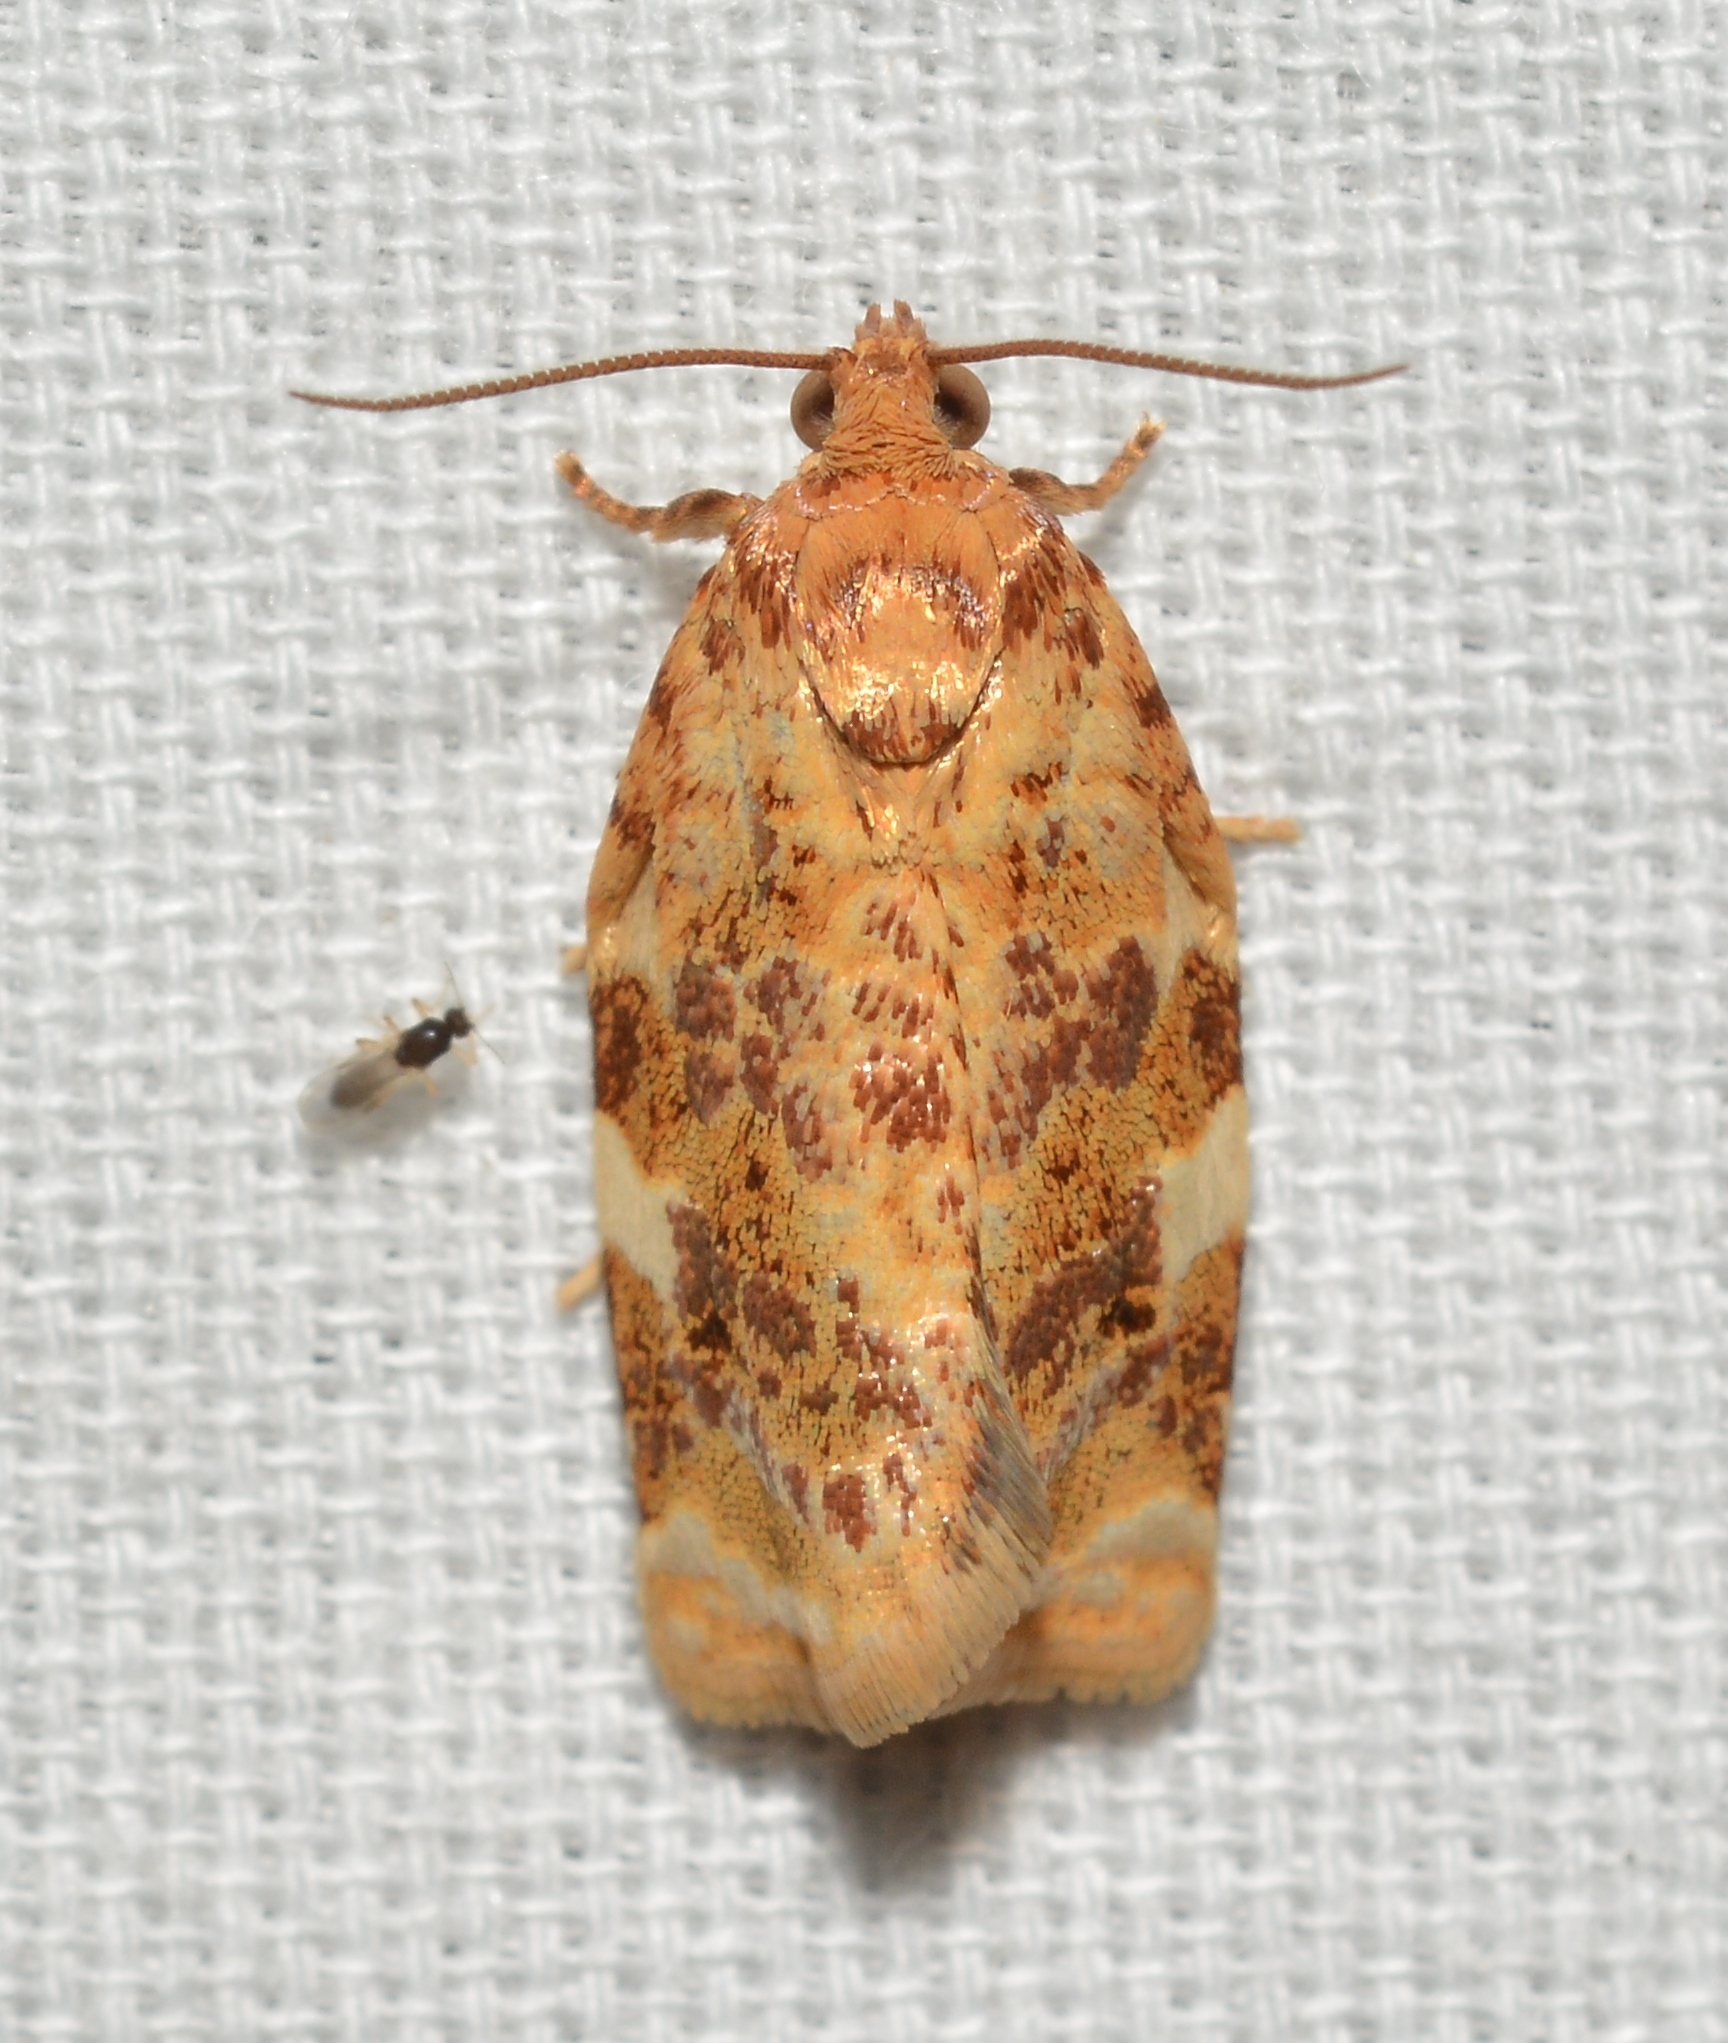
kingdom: Animalia
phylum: Arthropoda
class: Insecta
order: Lepidoptera
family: Tortricidae
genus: Archips
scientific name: Archips argyrospila
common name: Fruit-tree leafroller moth
